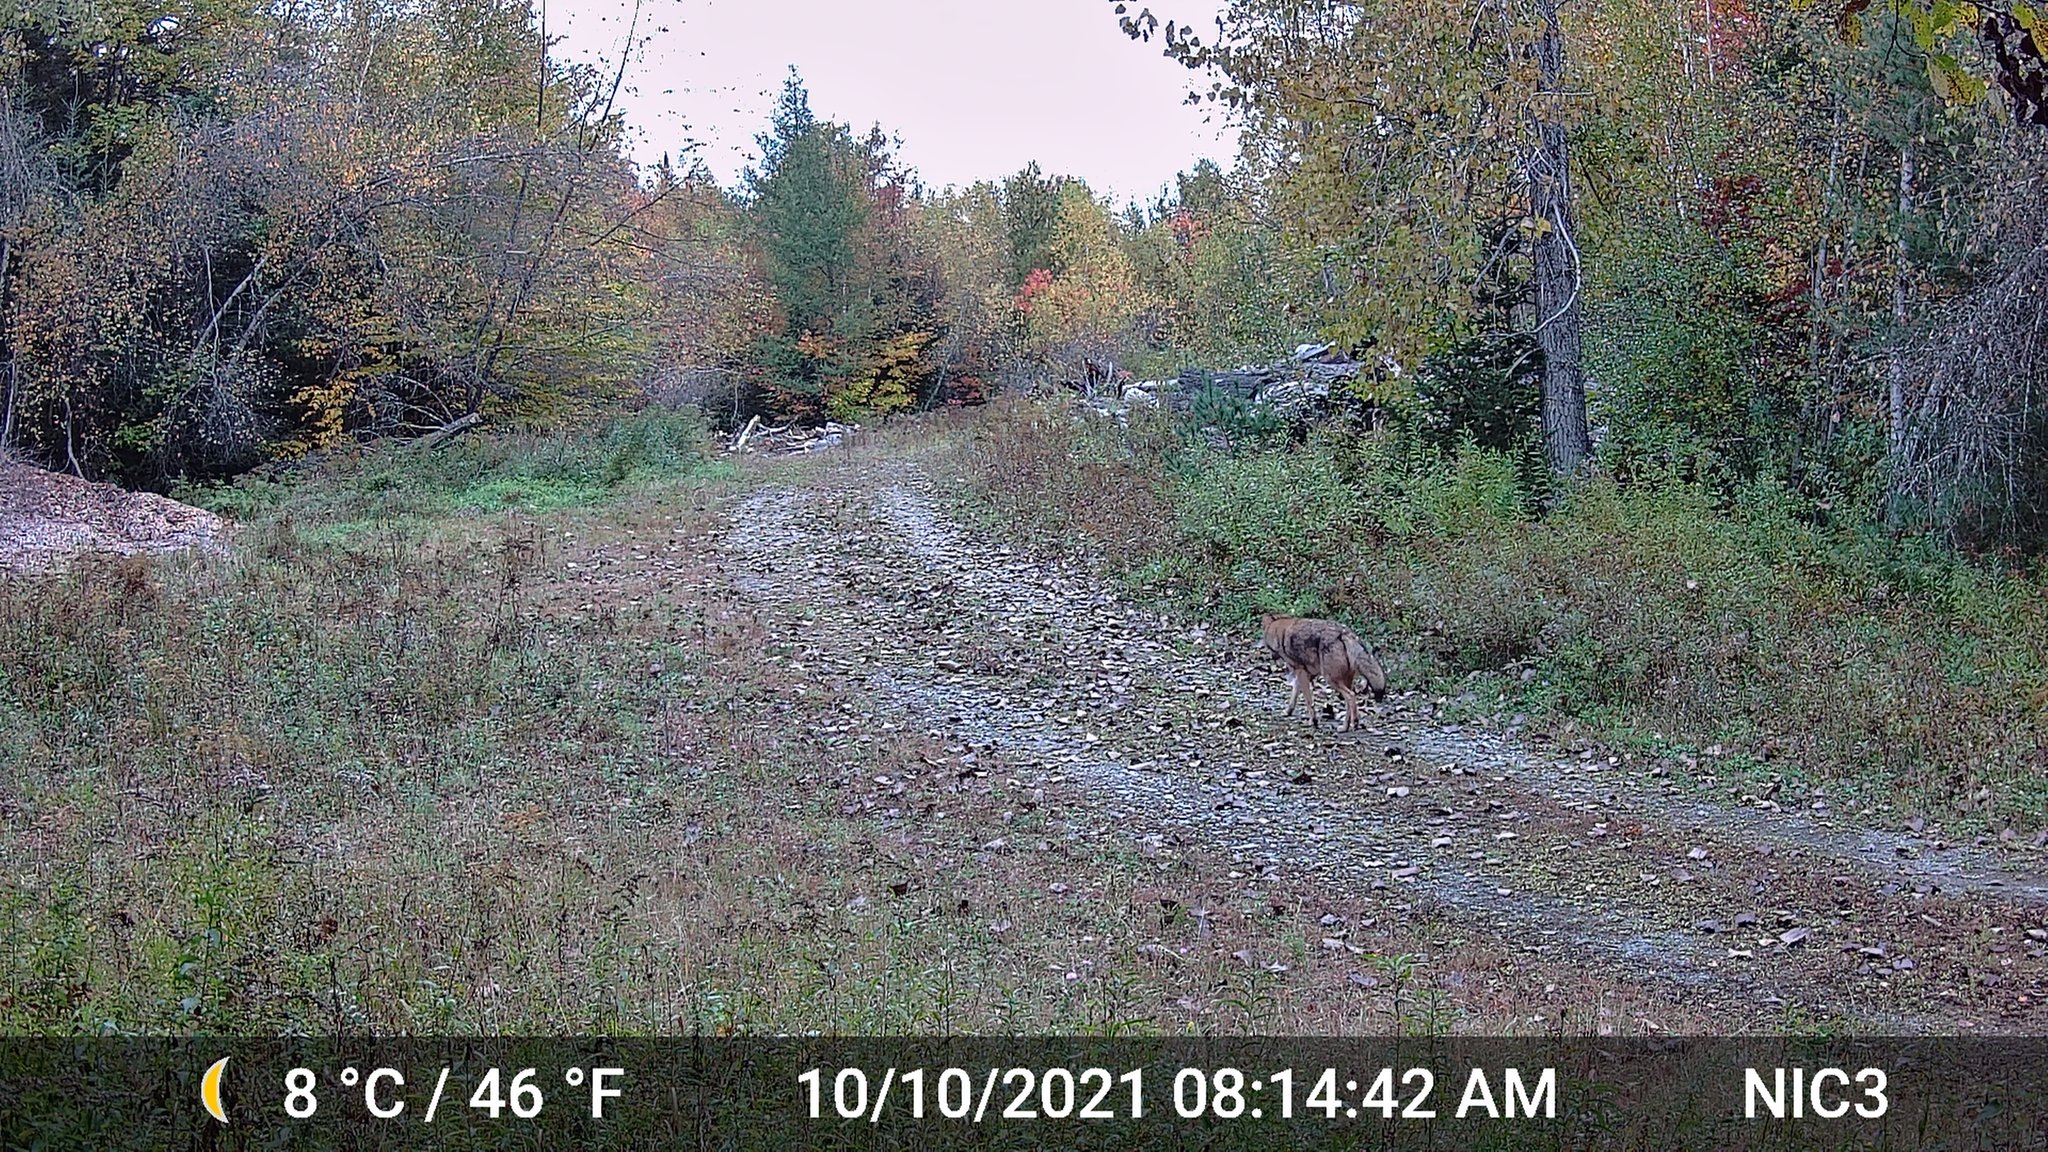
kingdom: Animalia
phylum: Chordata
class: Mammalia
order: Carnivora
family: Canidae
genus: Canis
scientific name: Canis latrans
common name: Coyote
